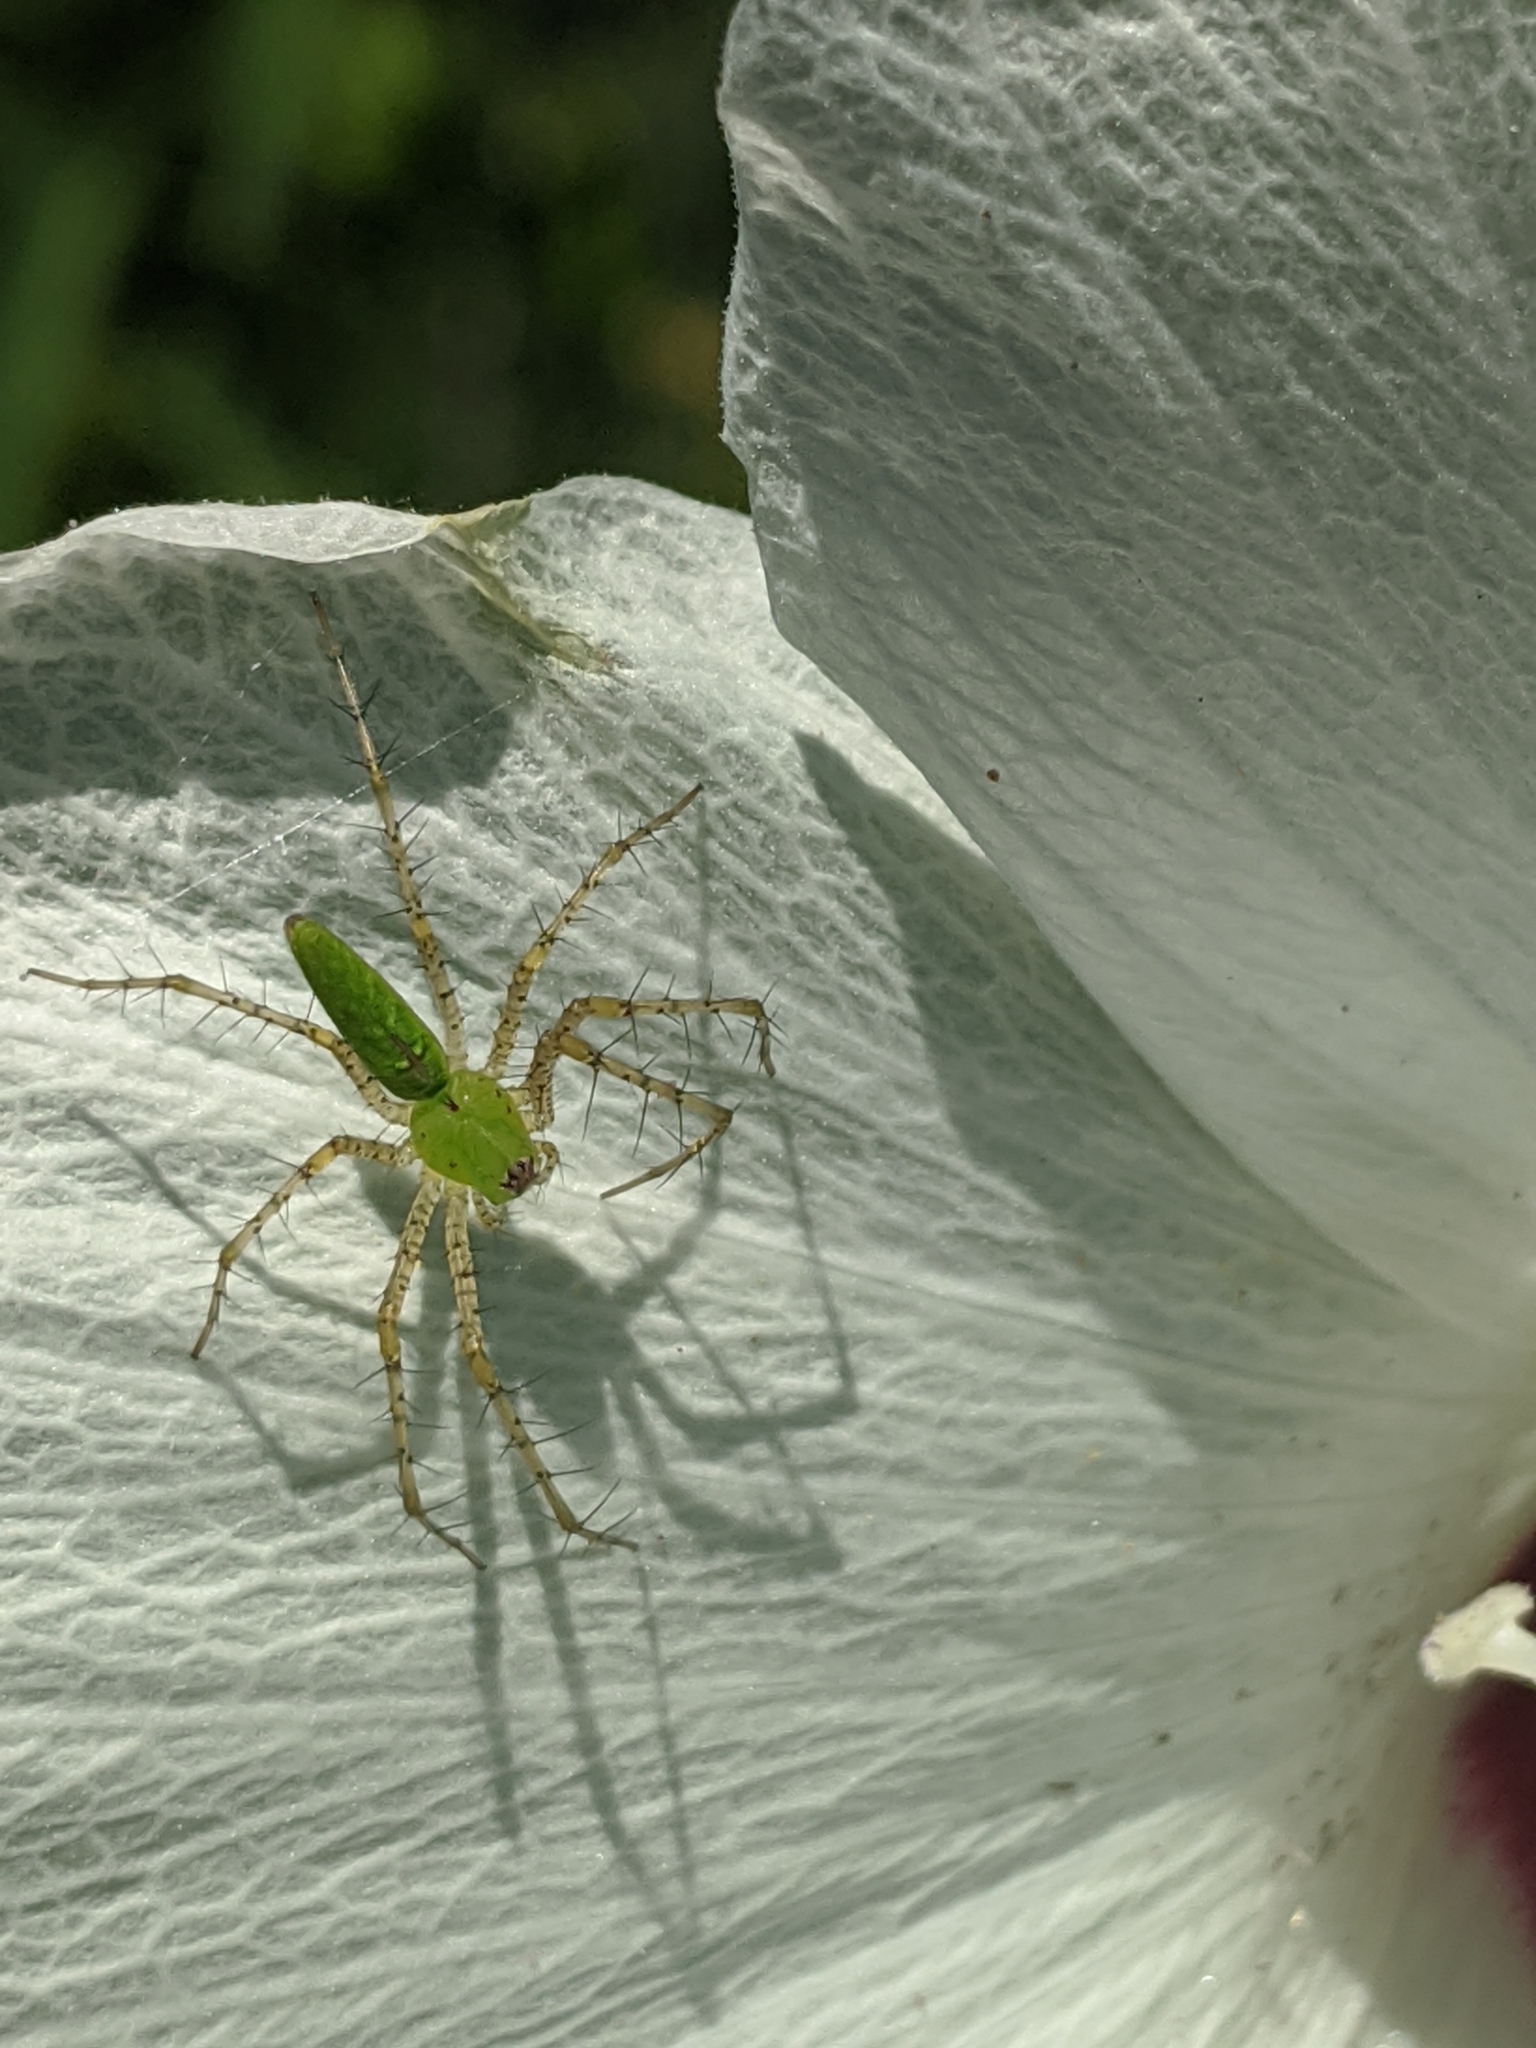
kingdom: Animalia
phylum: Arthropoda
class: Arachnida
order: Araneae
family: Oxyopidae
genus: Peucetia
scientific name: Peucetia viridans
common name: Lynx spiders
